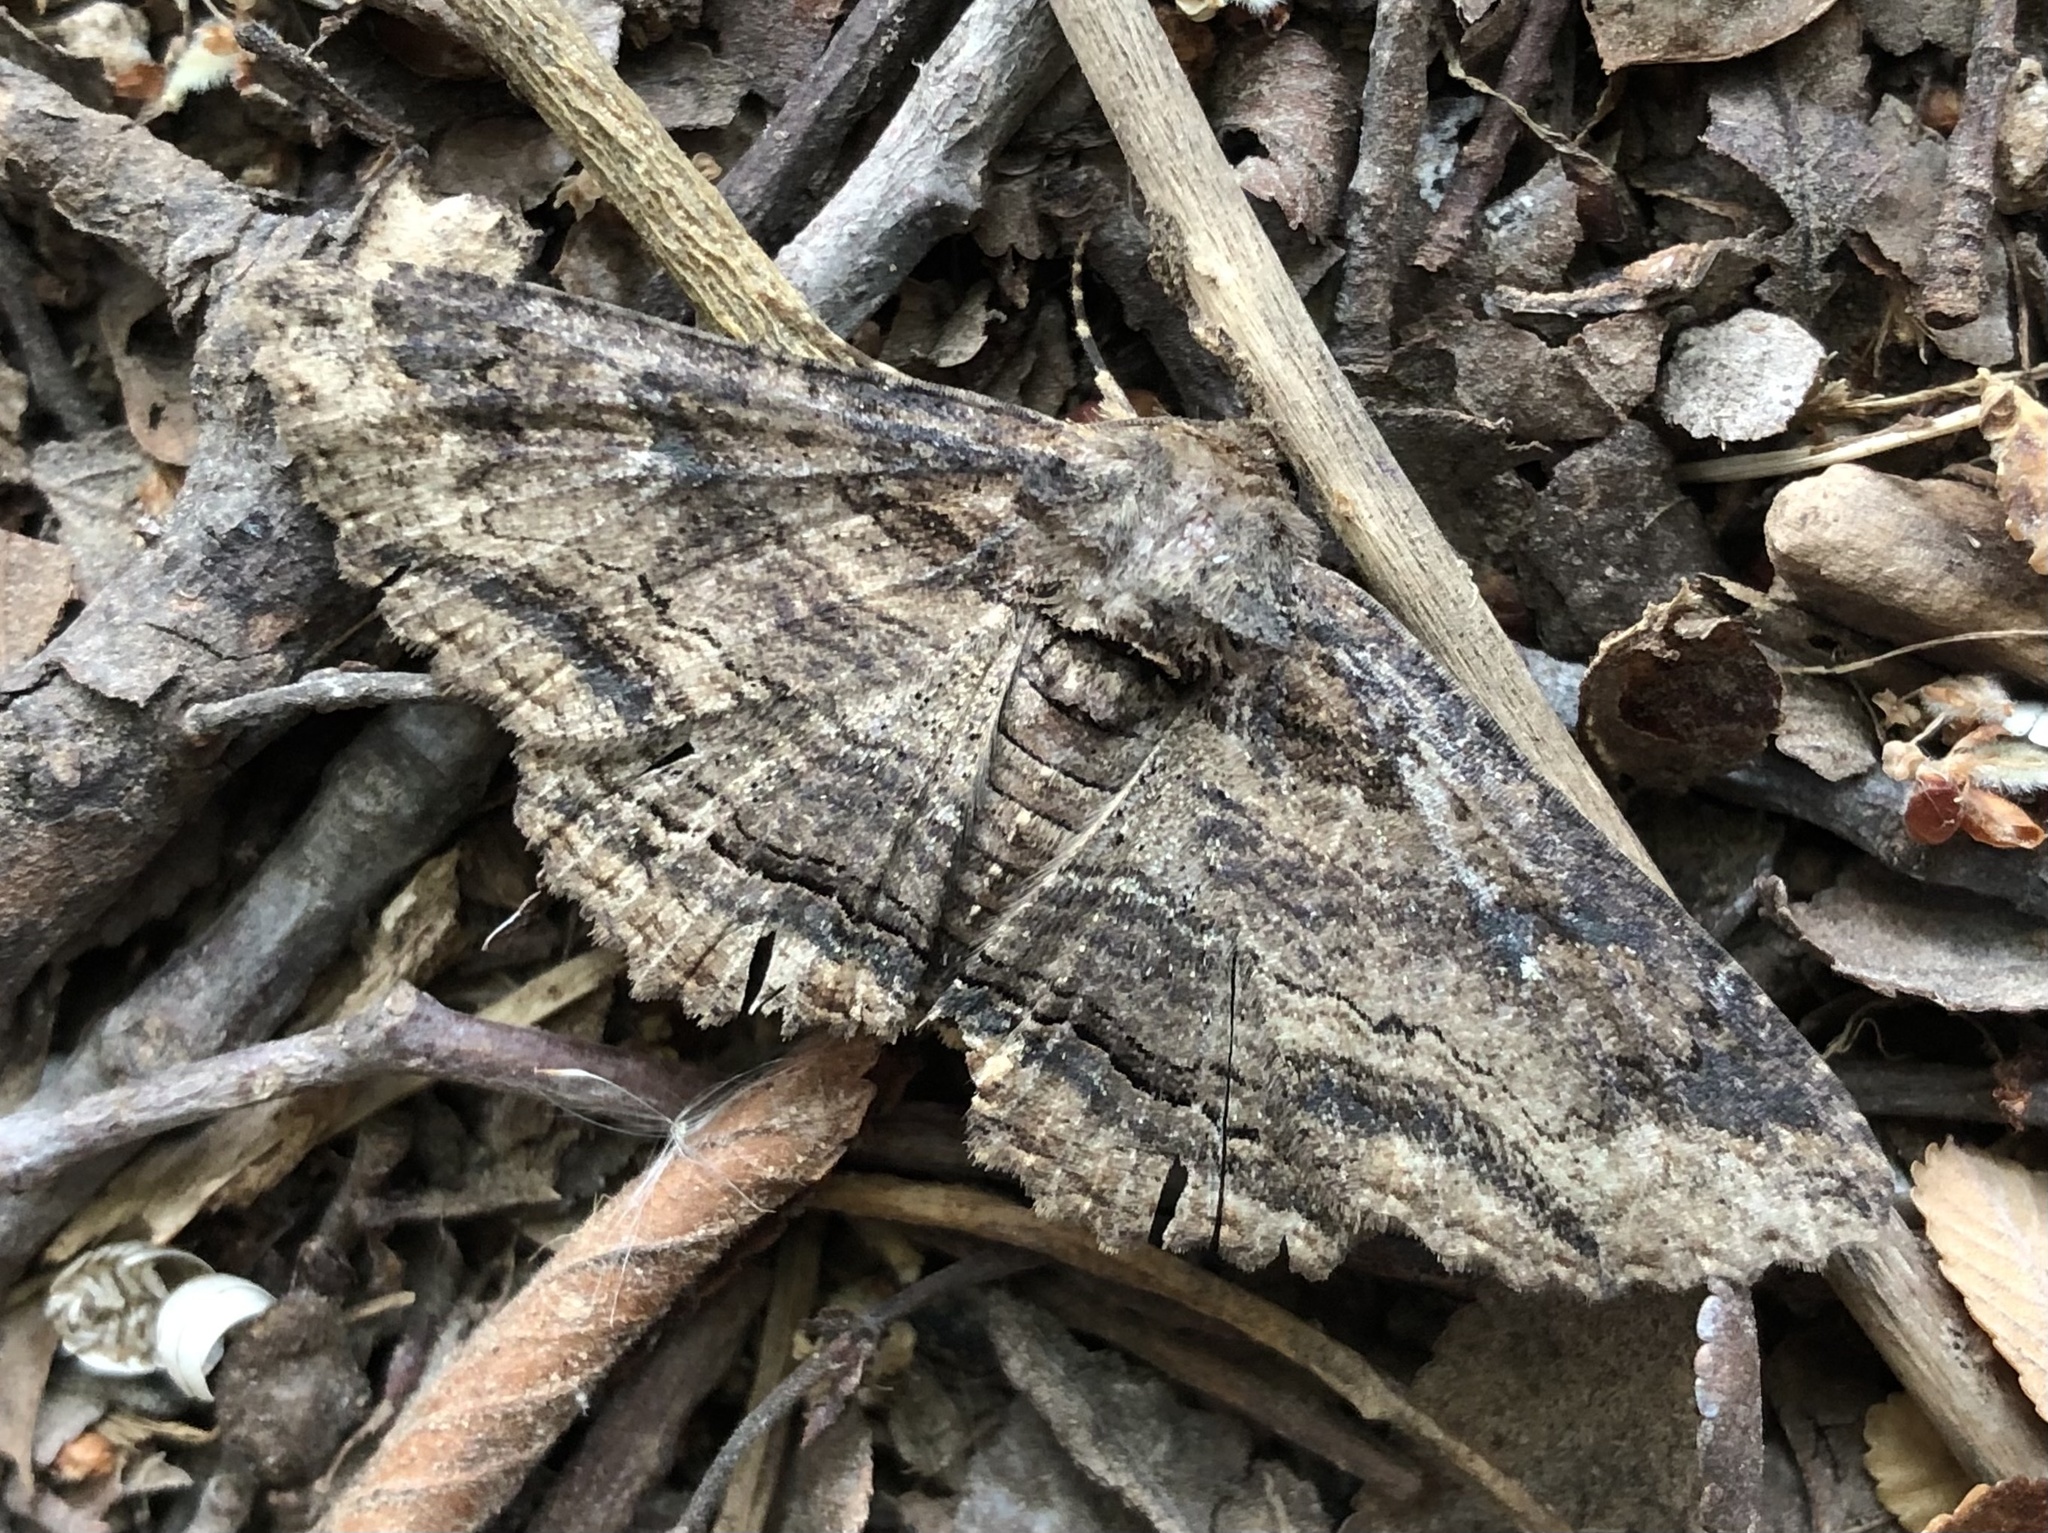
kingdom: Animalia
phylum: Arthropoda
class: Insecta
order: Lepidoptera
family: Erebidae
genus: Zale
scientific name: Zale lunata
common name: Lunate zale moth
